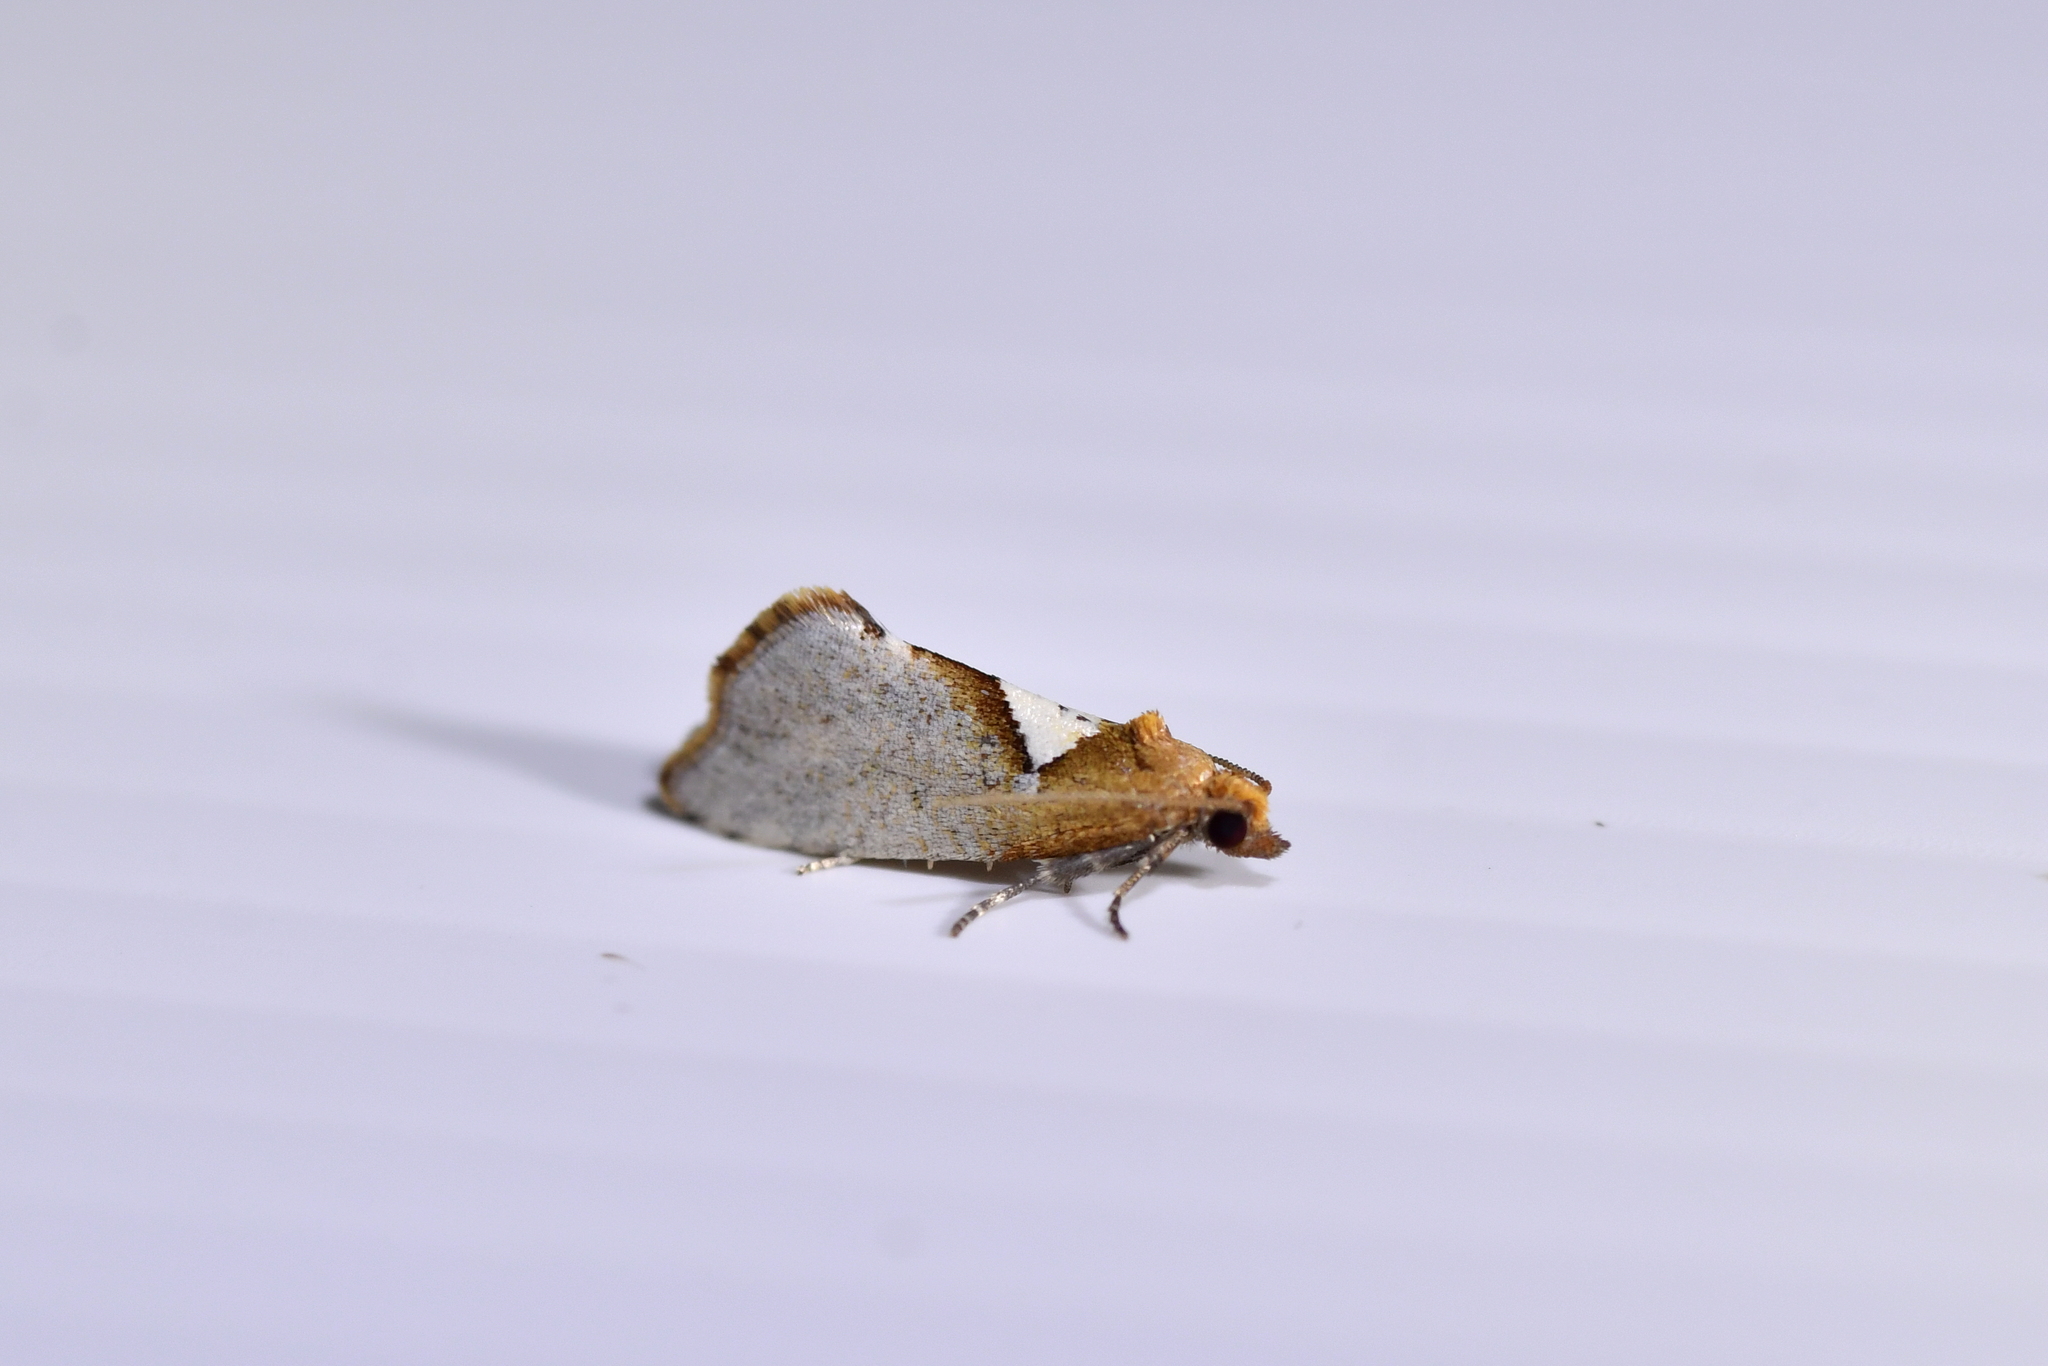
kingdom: Animalia
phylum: Arthropoda
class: Insecta
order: Lepidoptera
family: Tortricidae
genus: Pyrgotis
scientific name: Pyrgotis pyramidias
